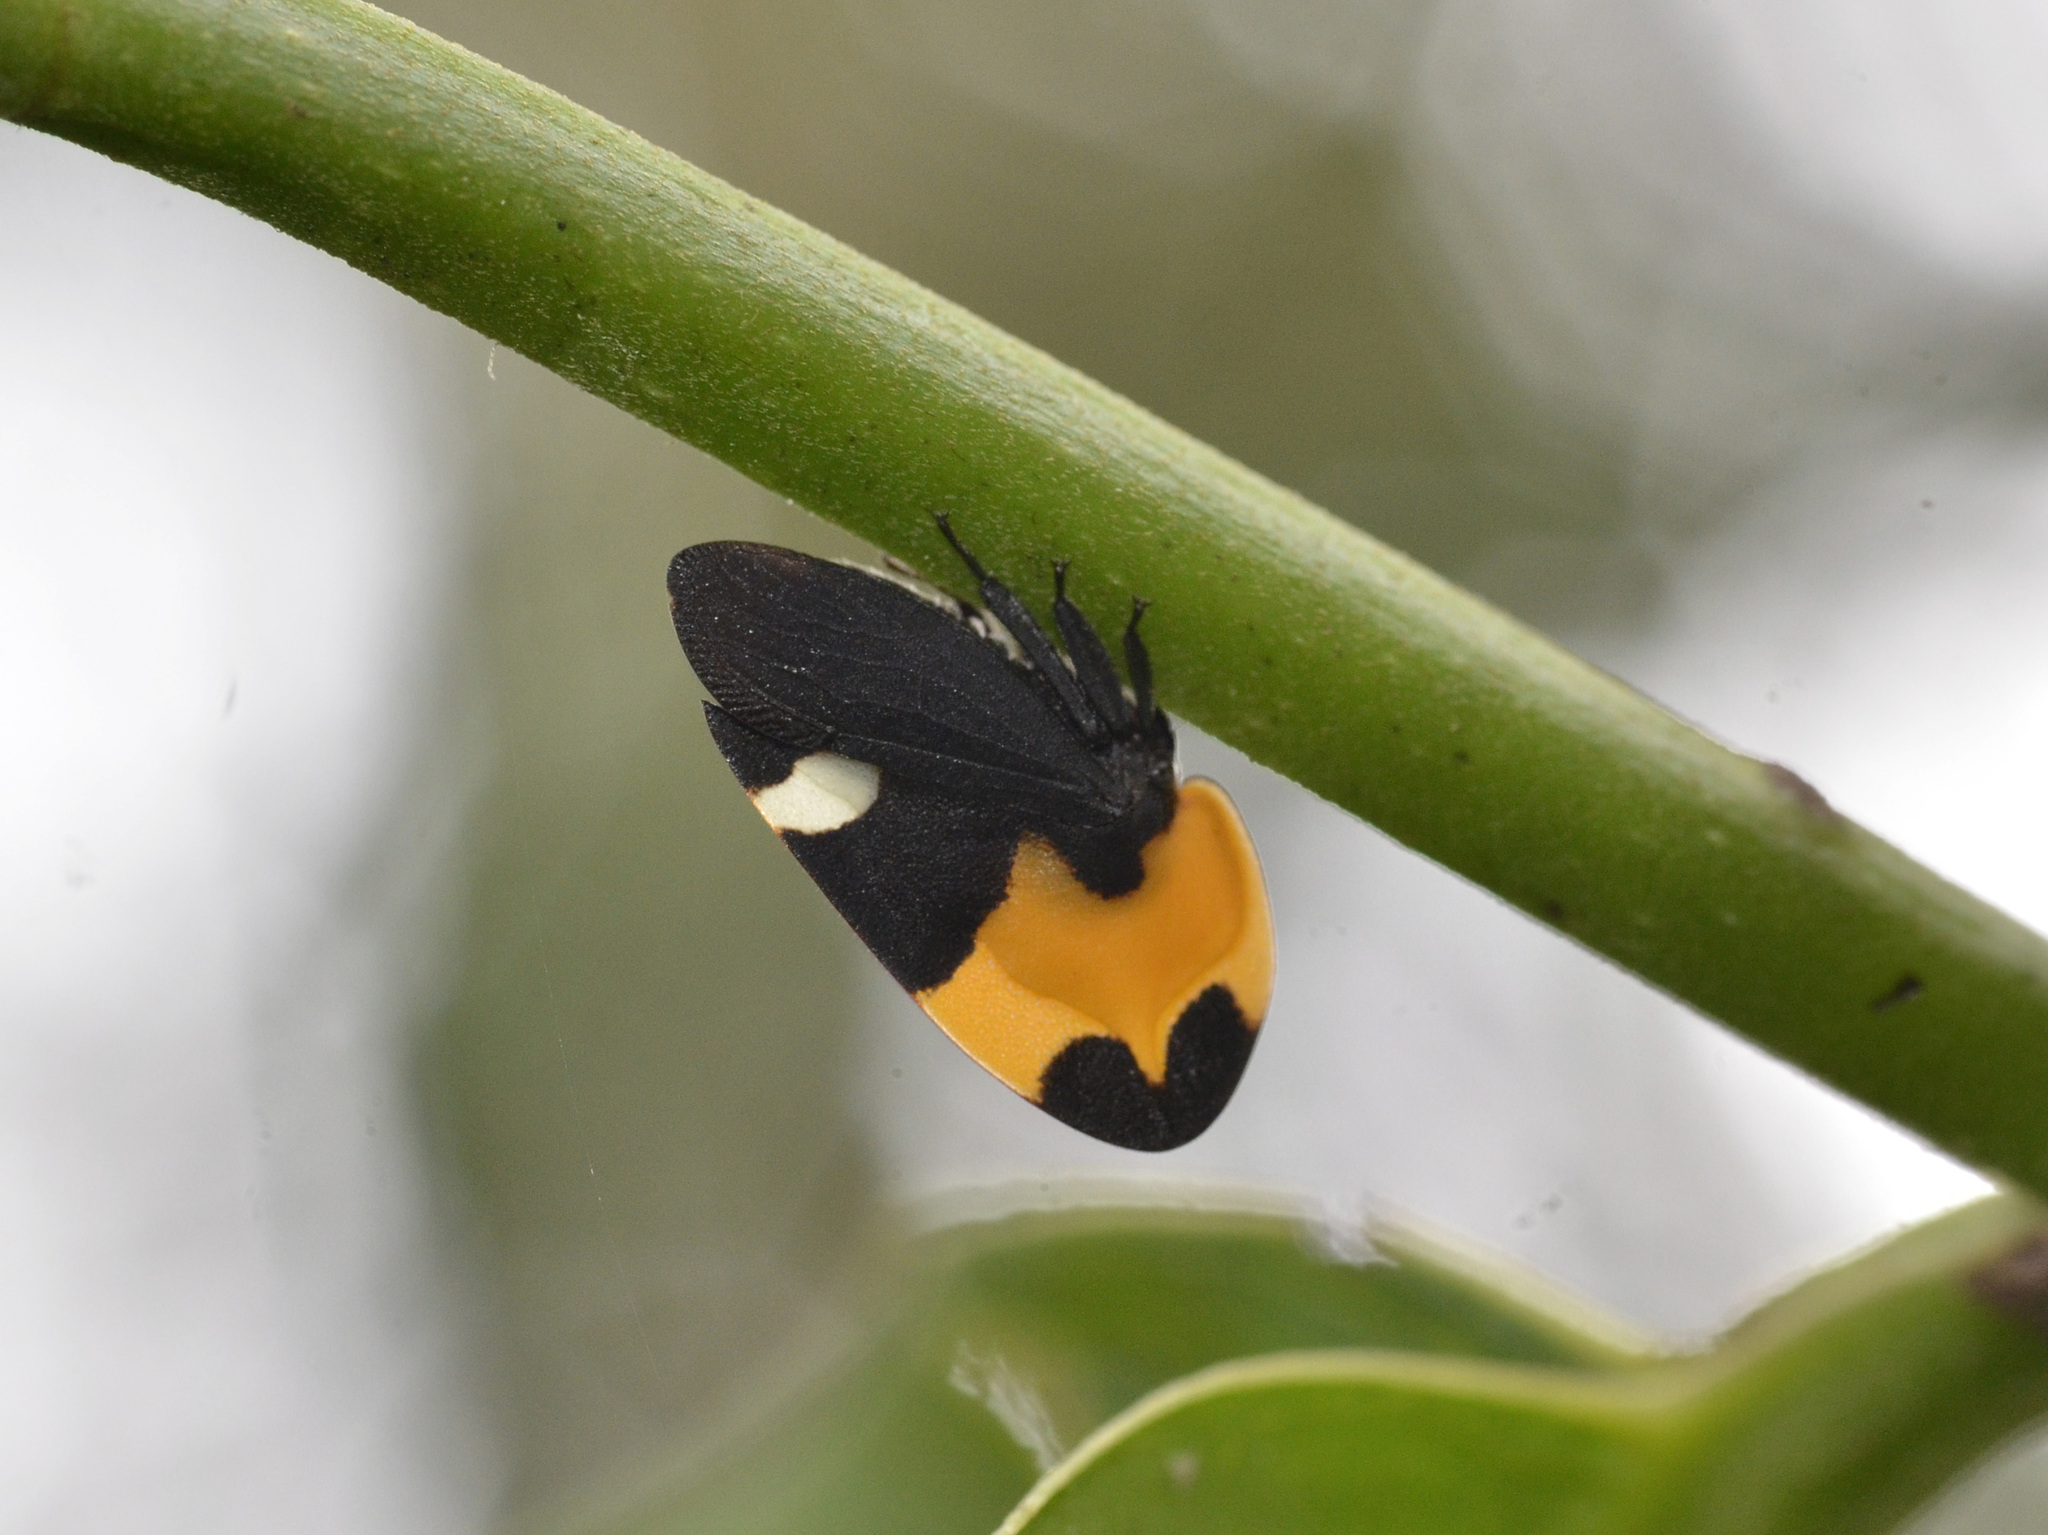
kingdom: Animalia
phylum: Arthropoda
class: Insecta
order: Hemiptera
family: Membracidae
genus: Phyllotropis
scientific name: Phyllotropis cingulata
